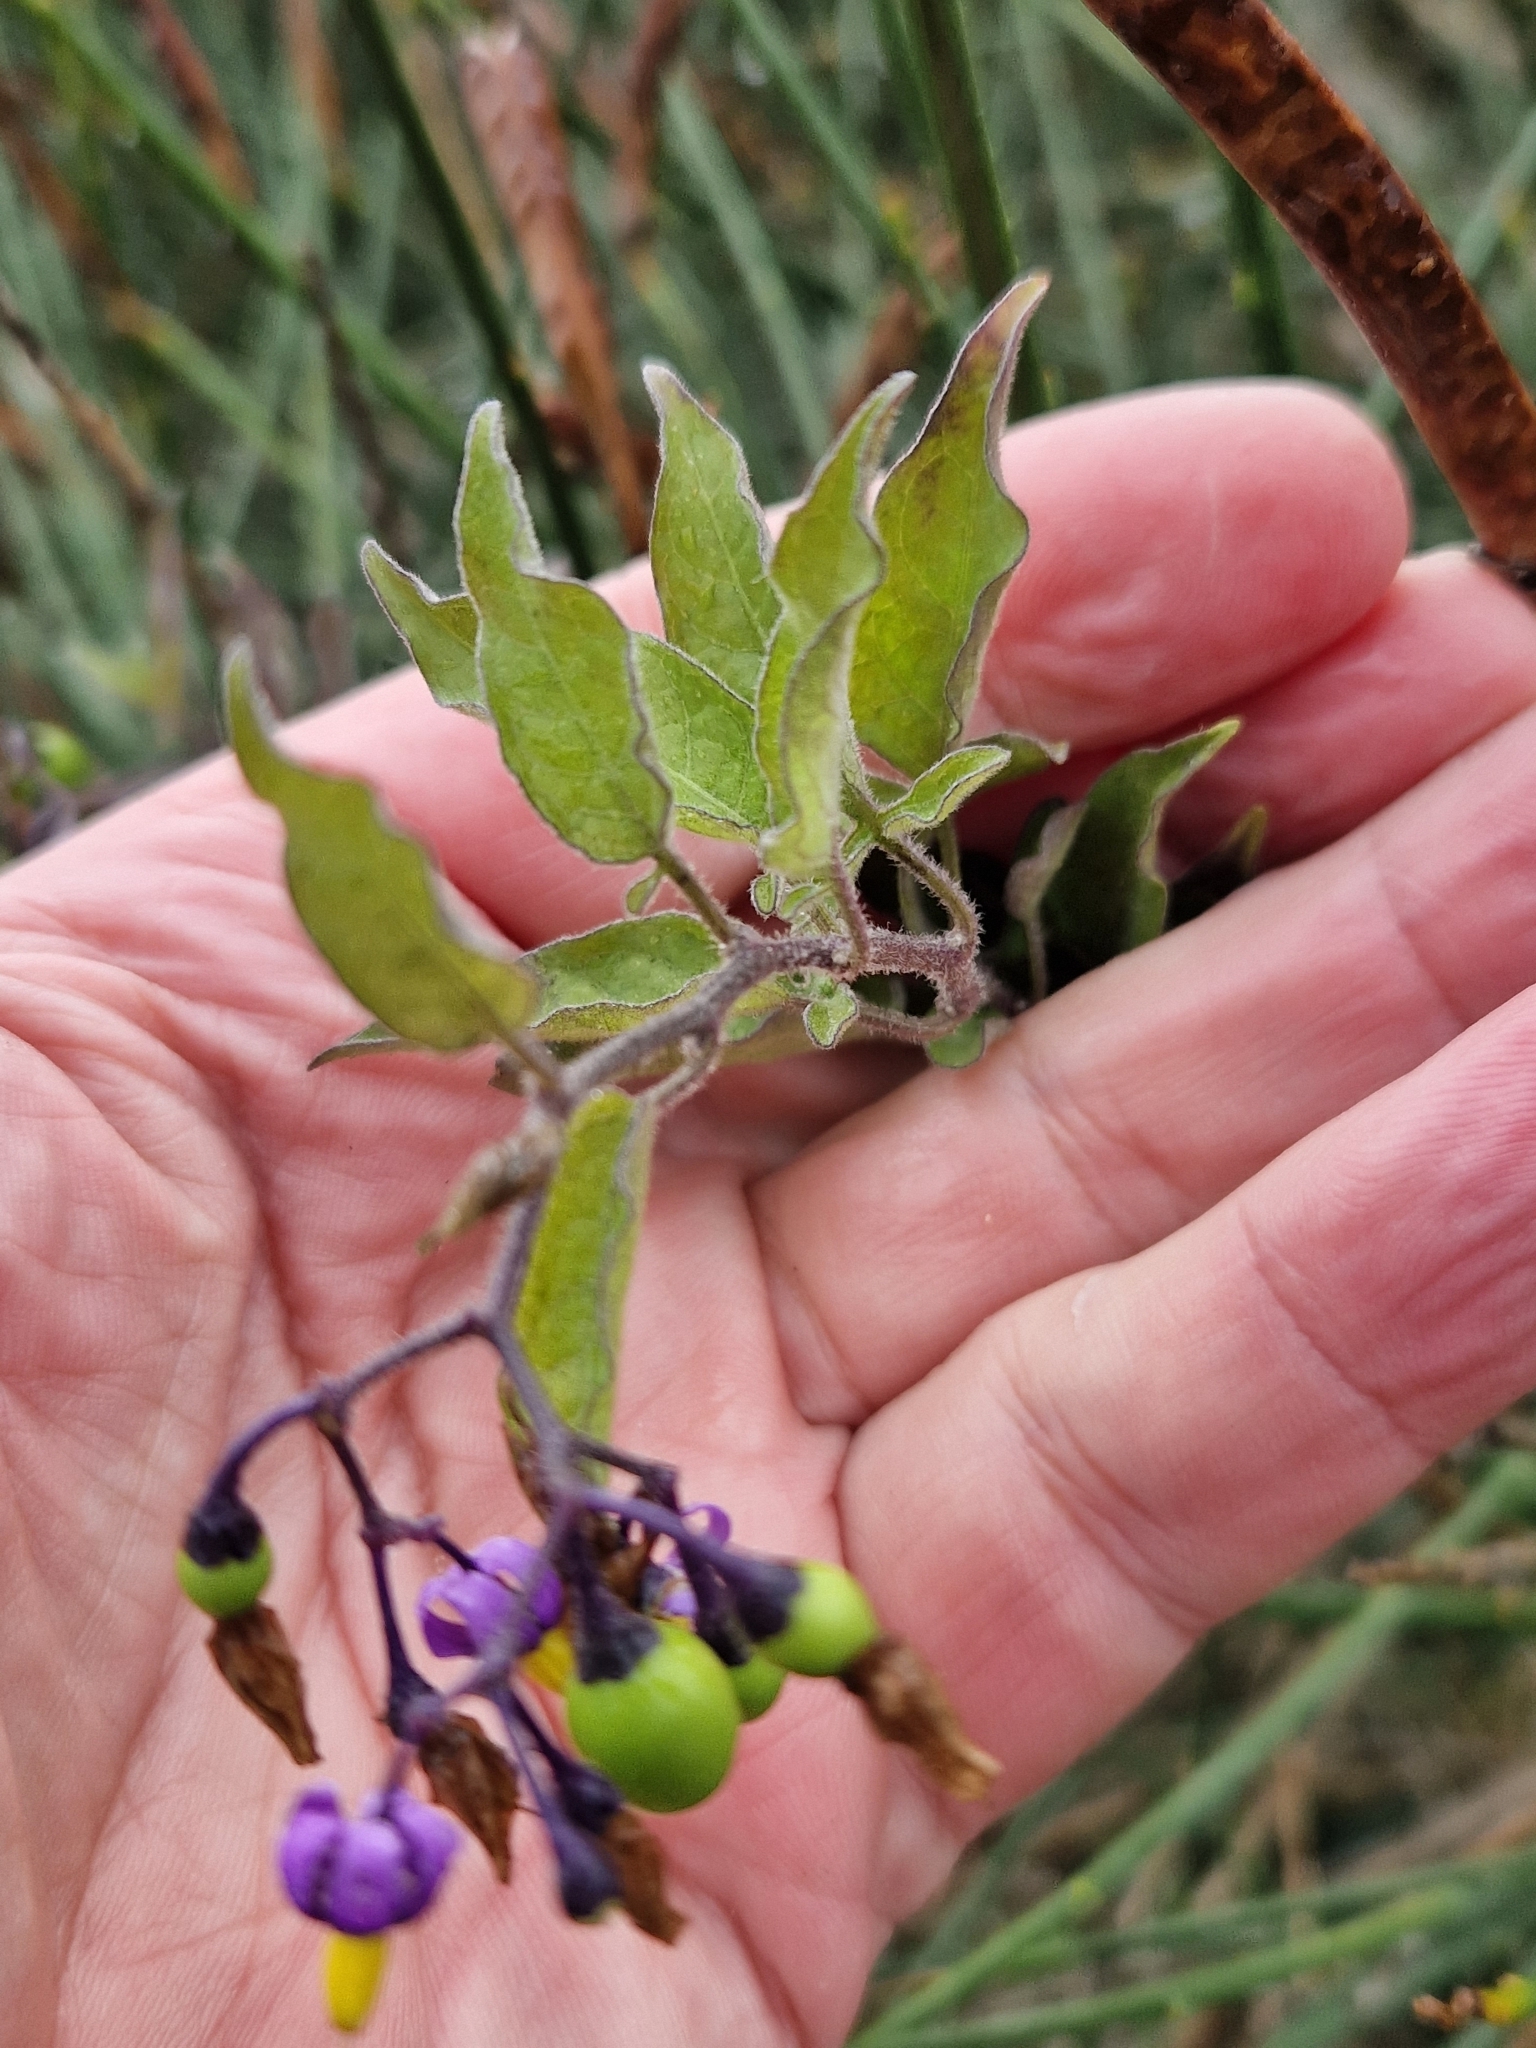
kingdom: Plantae
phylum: Tracheophyta
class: Magnoliopsida
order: Solanales
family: Solanaceae
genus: Solanum
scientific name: Solanum dulcamara
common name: Climbing nightshade
